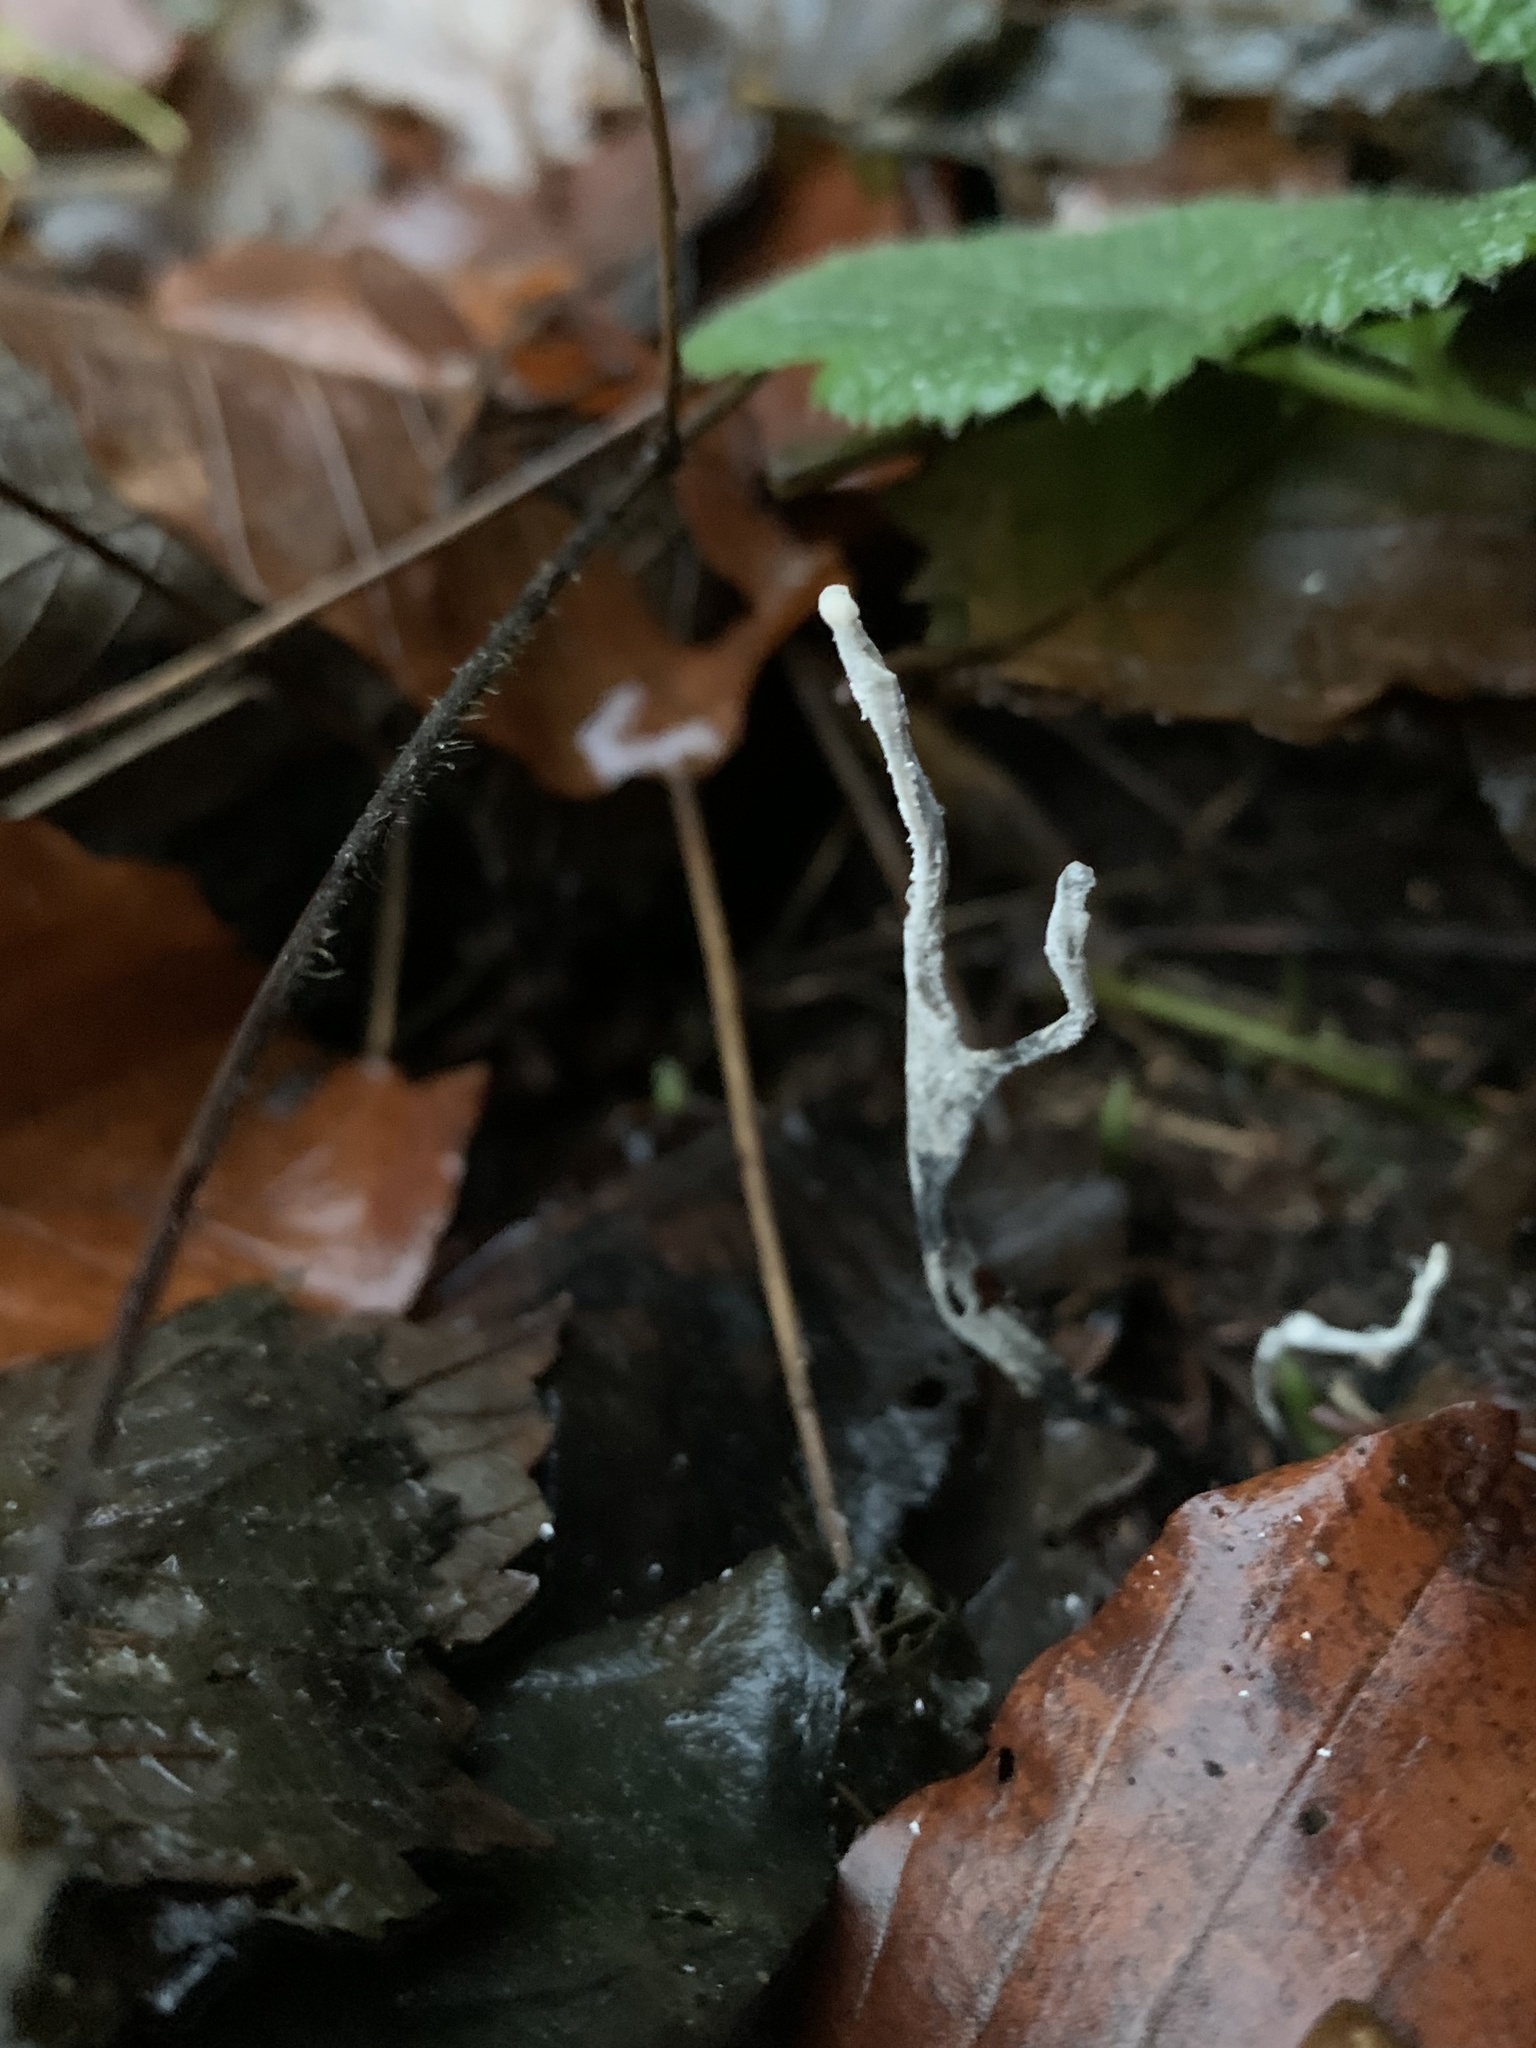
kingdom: Fungi
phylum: Ascomycota
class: Sordariomycetes
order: Xylariales
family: Xylariaceae
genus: Xylaria
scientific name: Xylaria hypoxylon
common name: Candle-snuff fungus
